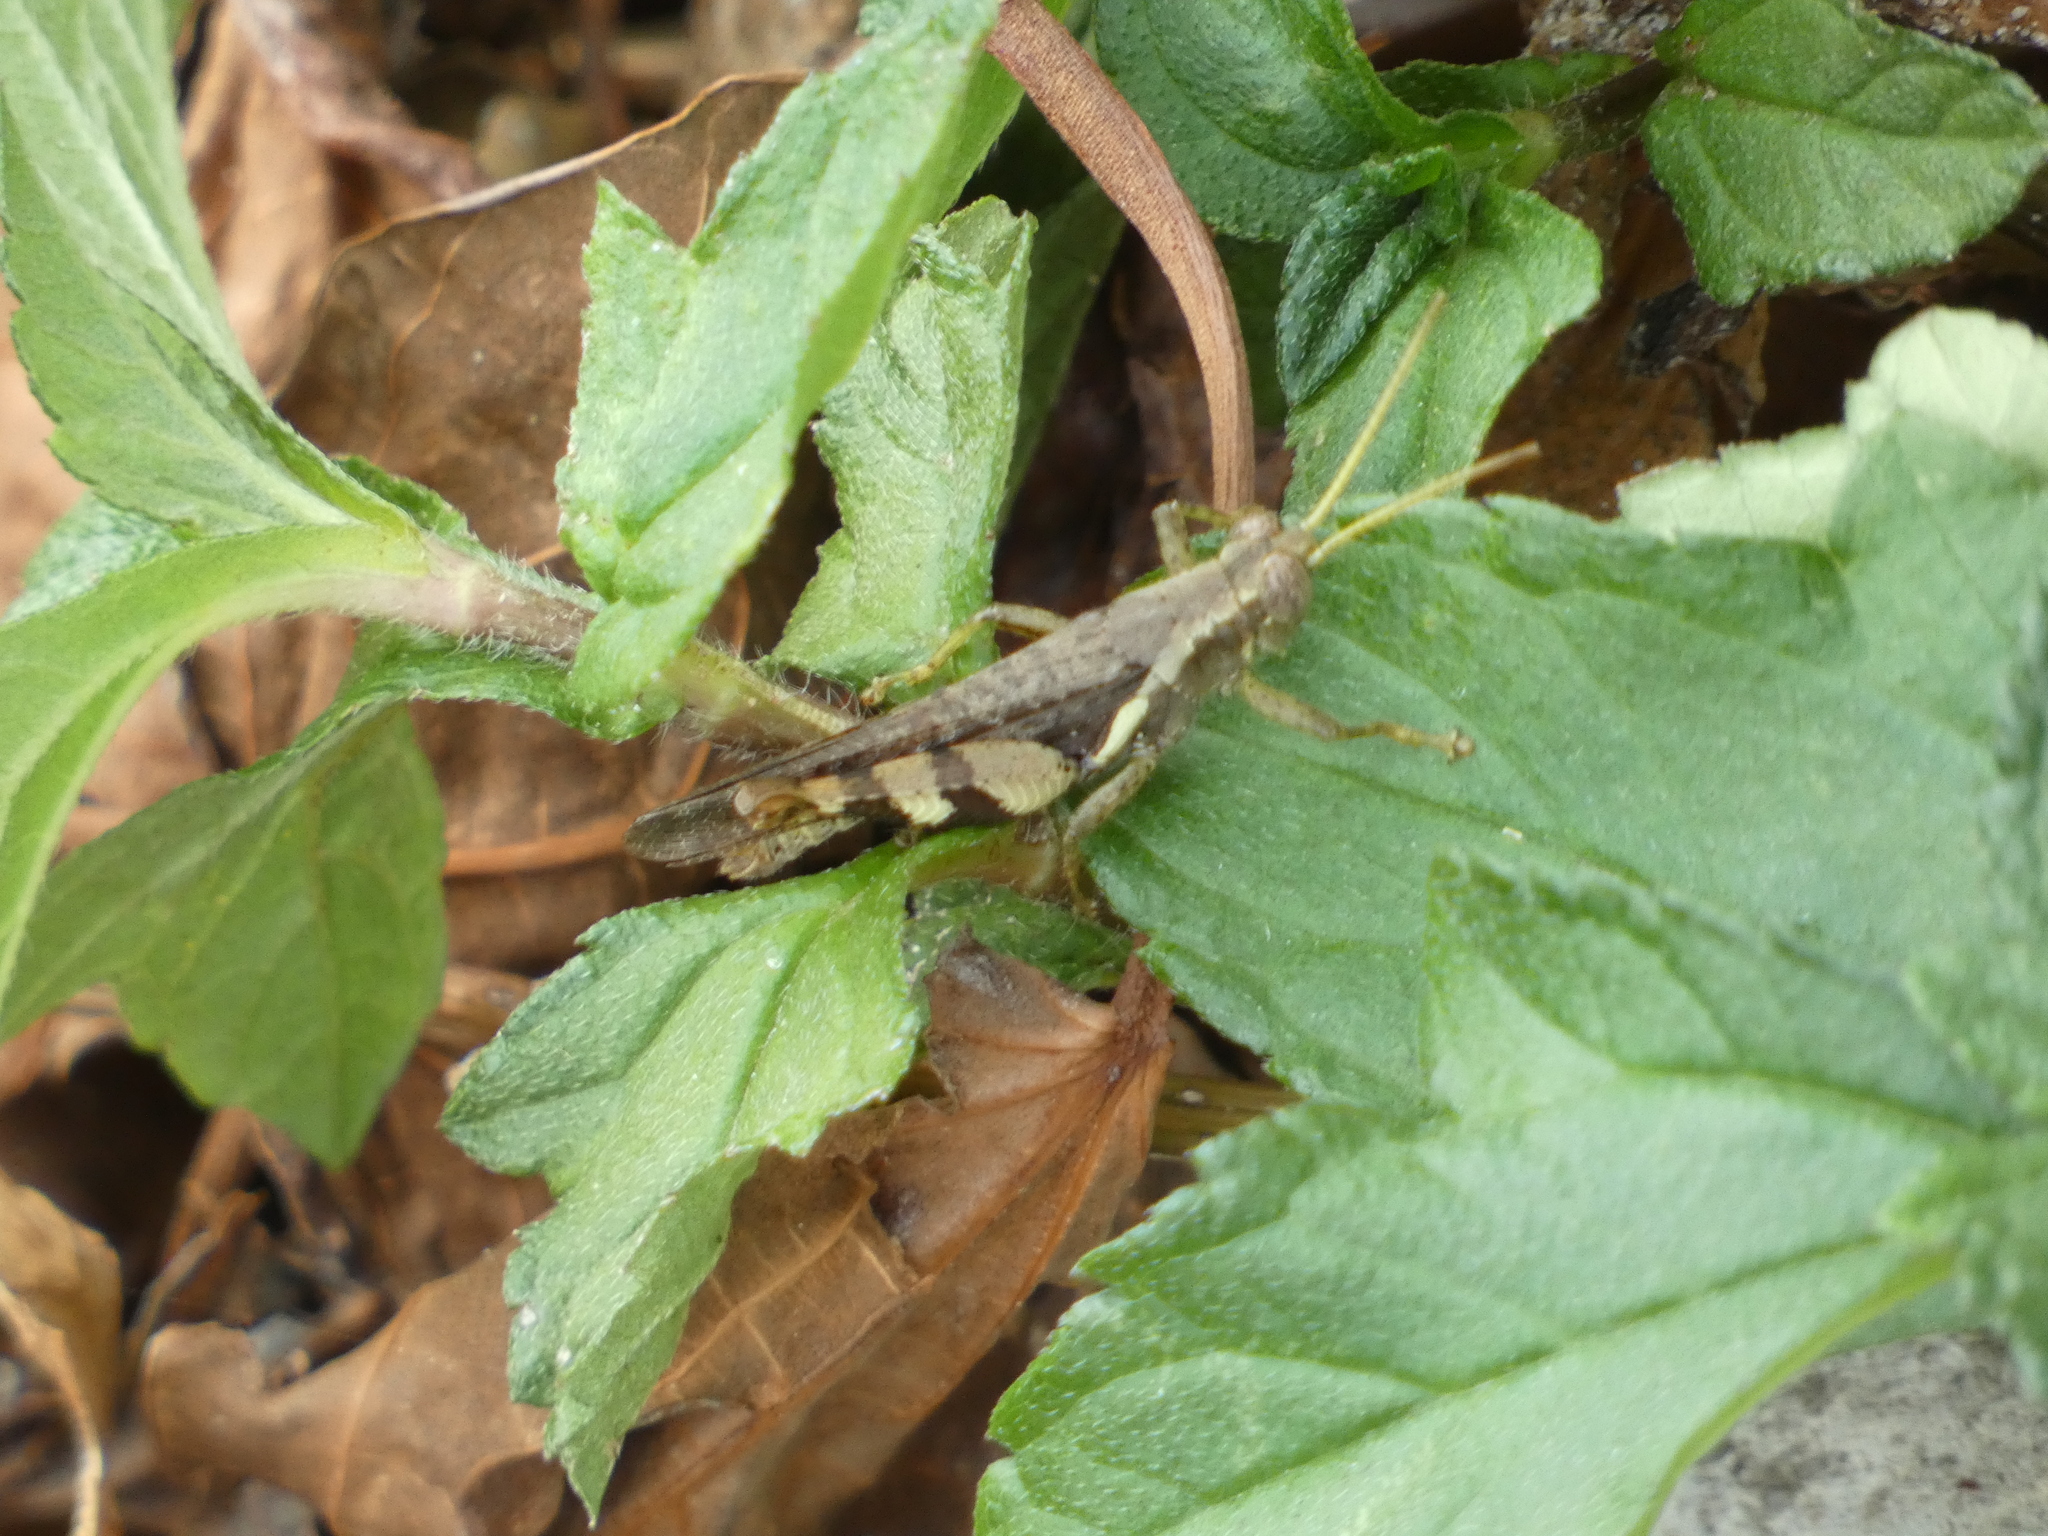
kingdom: Animalia
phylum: Arthropoda
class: Insecta
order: Orthoptera
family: Acrididae
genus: Xenocatantops
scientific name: Xenocatantops humile
